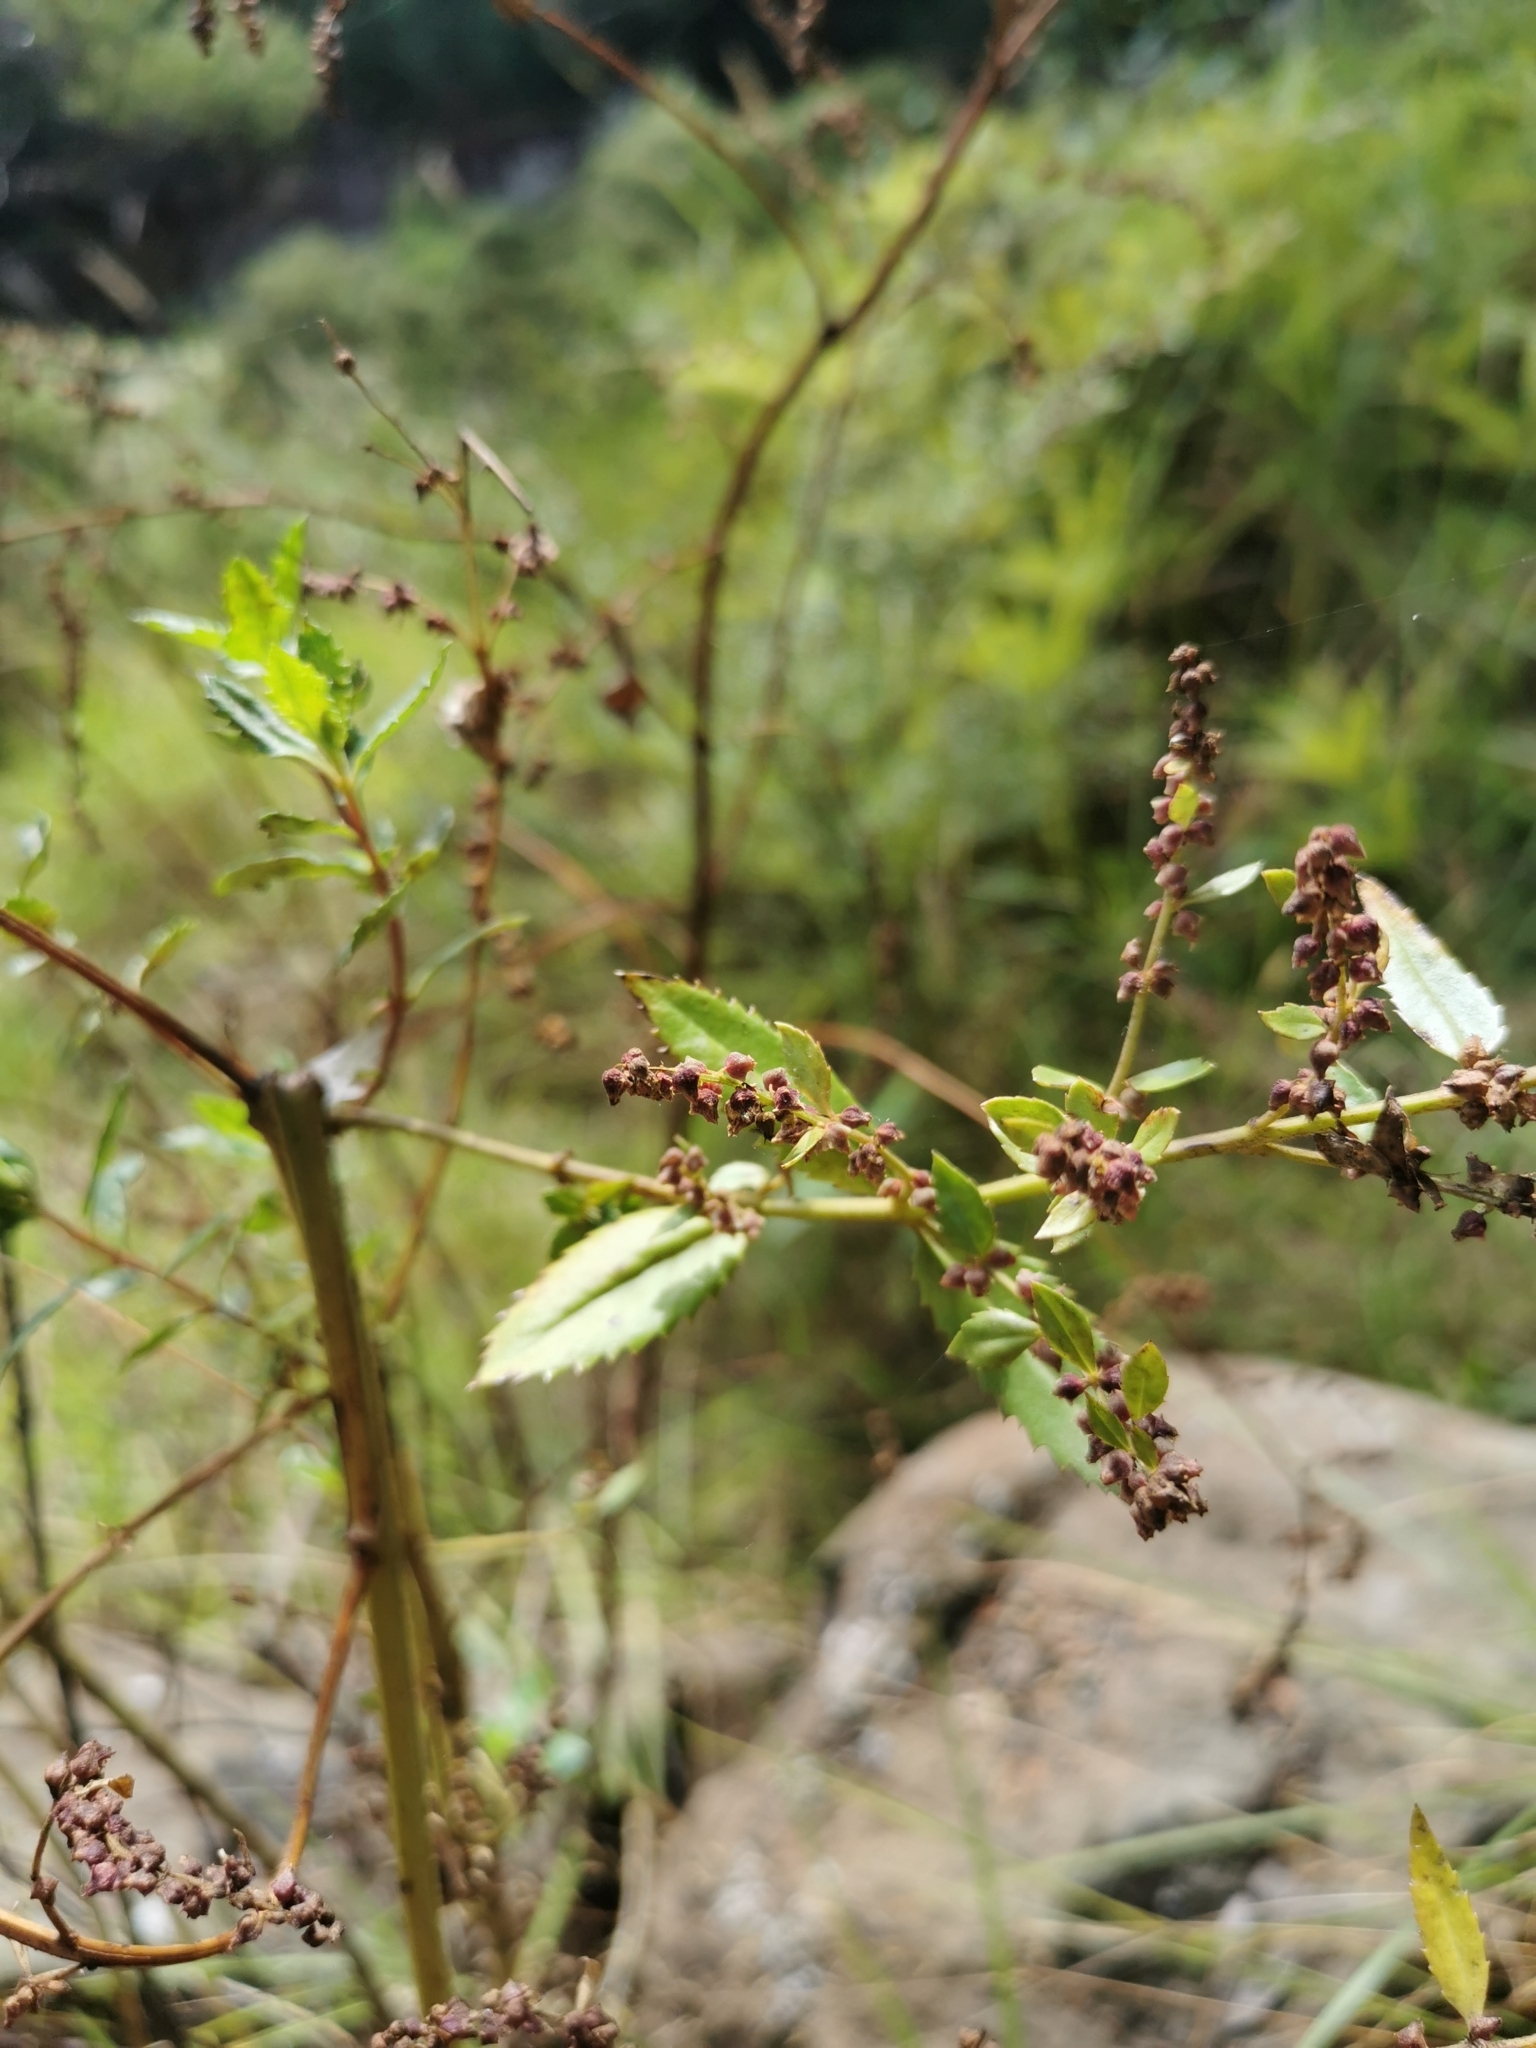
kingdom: Plantae
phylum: Tracheophyta
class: Magnoliopsida
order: Saxifragales
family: Haloragaceae
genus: Haloragis
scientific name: Haloragis erecta
